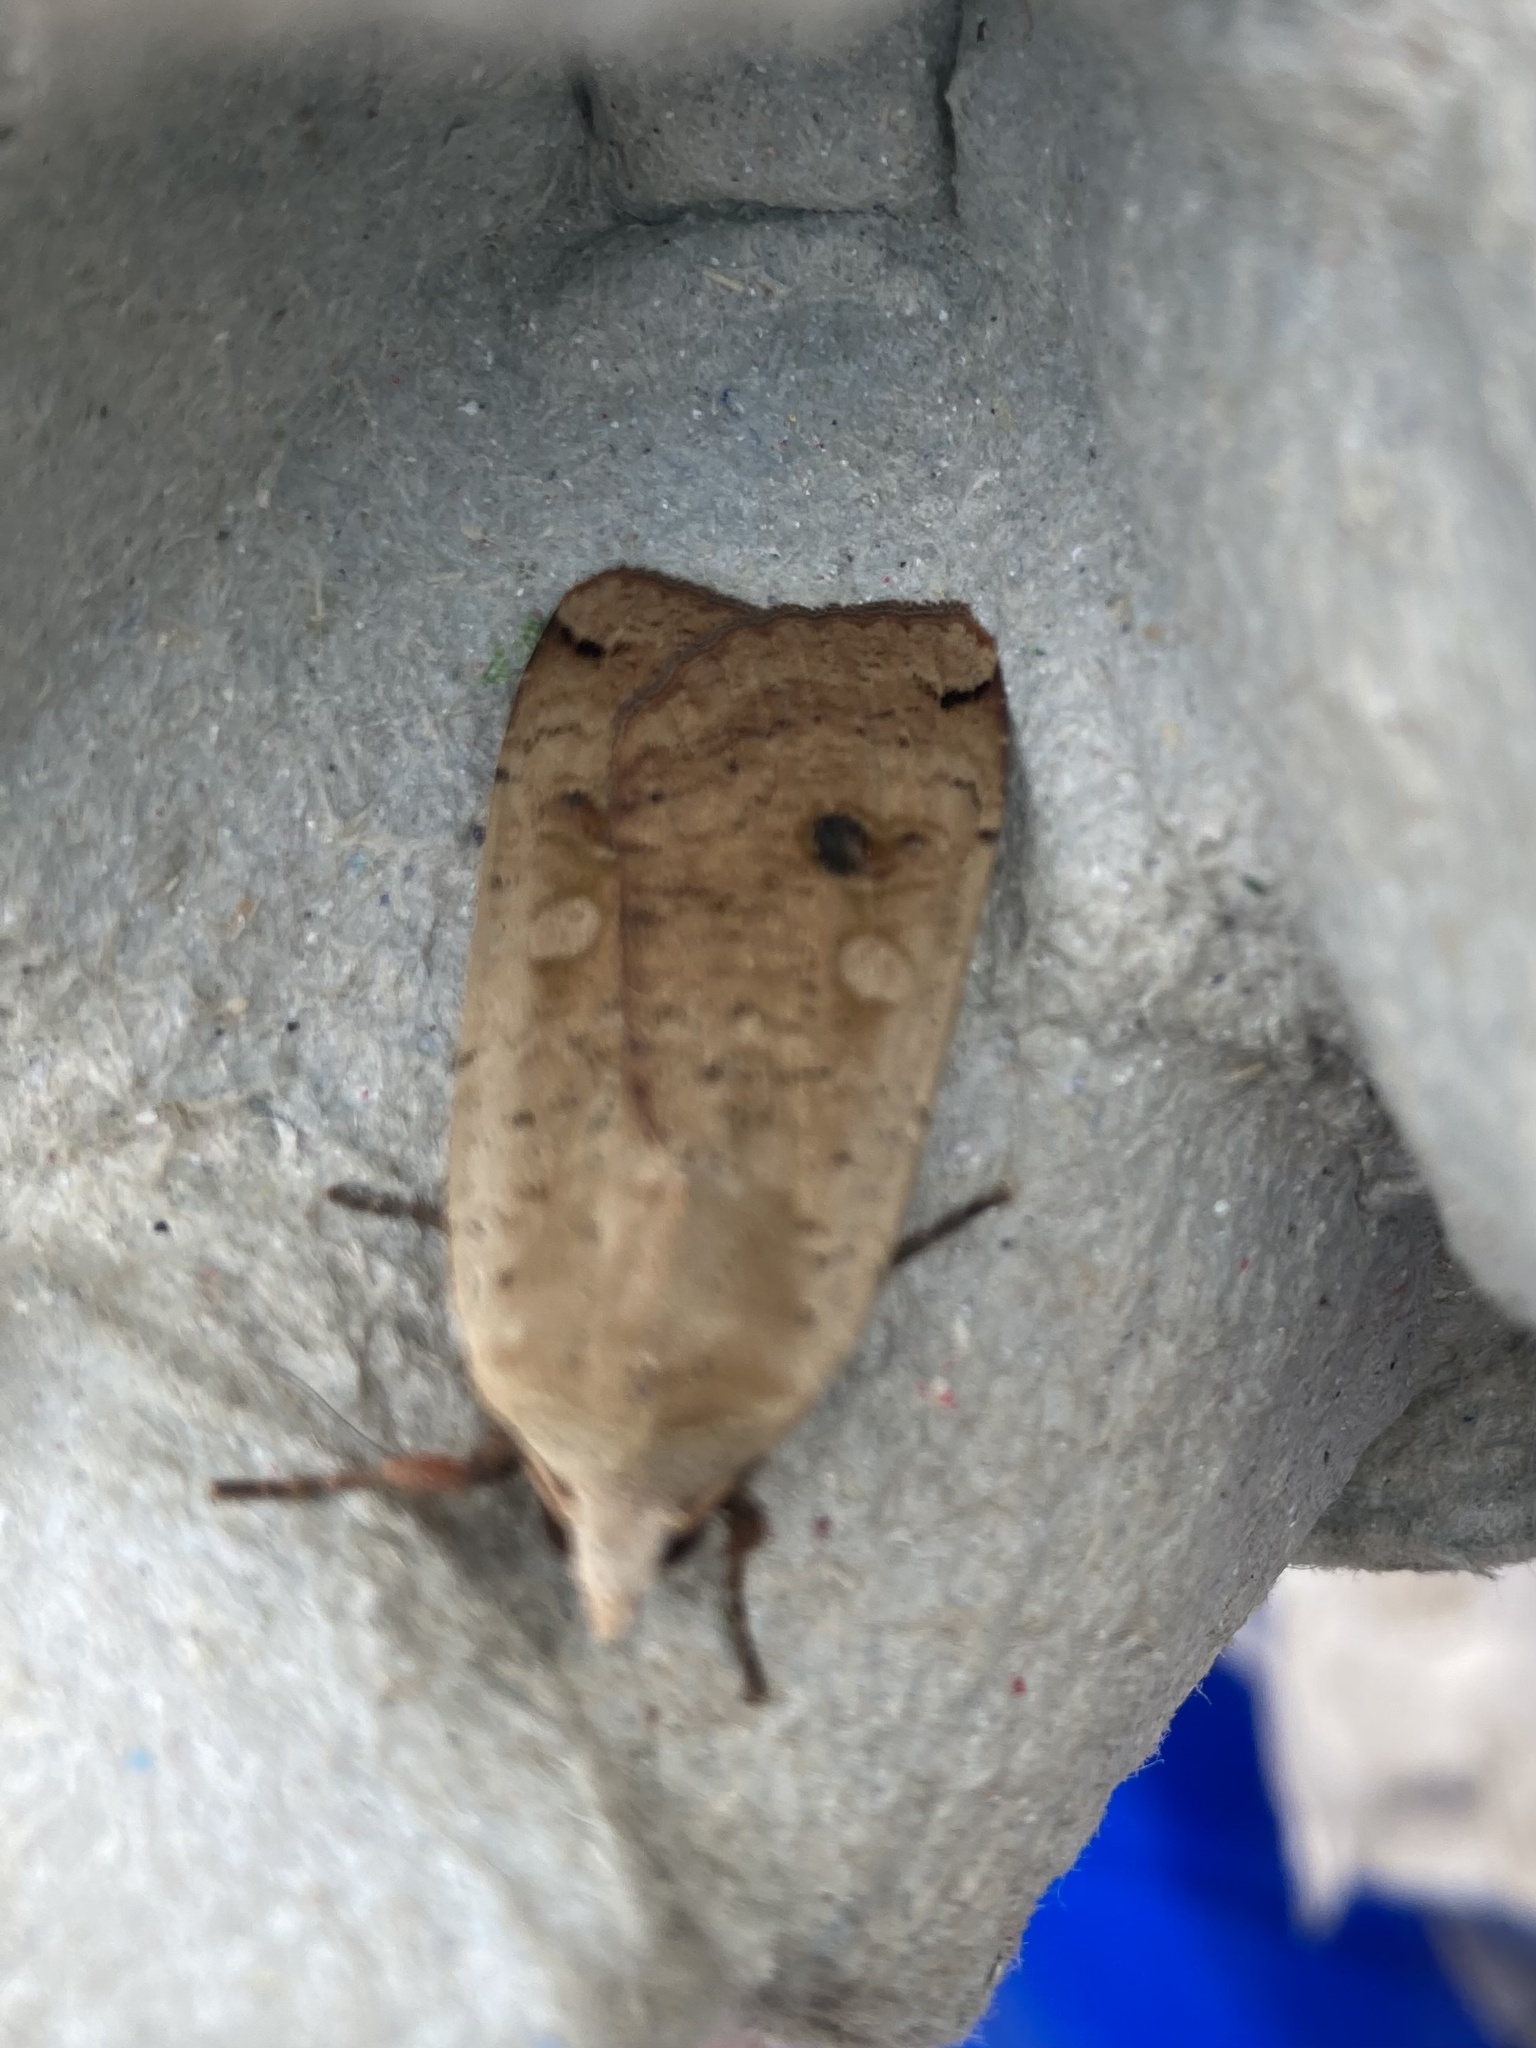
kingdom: Animalia
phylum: Arthropoda
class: Insecta
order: Lepidoptera
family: Noctuidae
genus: Noctua
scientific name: Noctua pronuba
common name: Large yellow underwing
